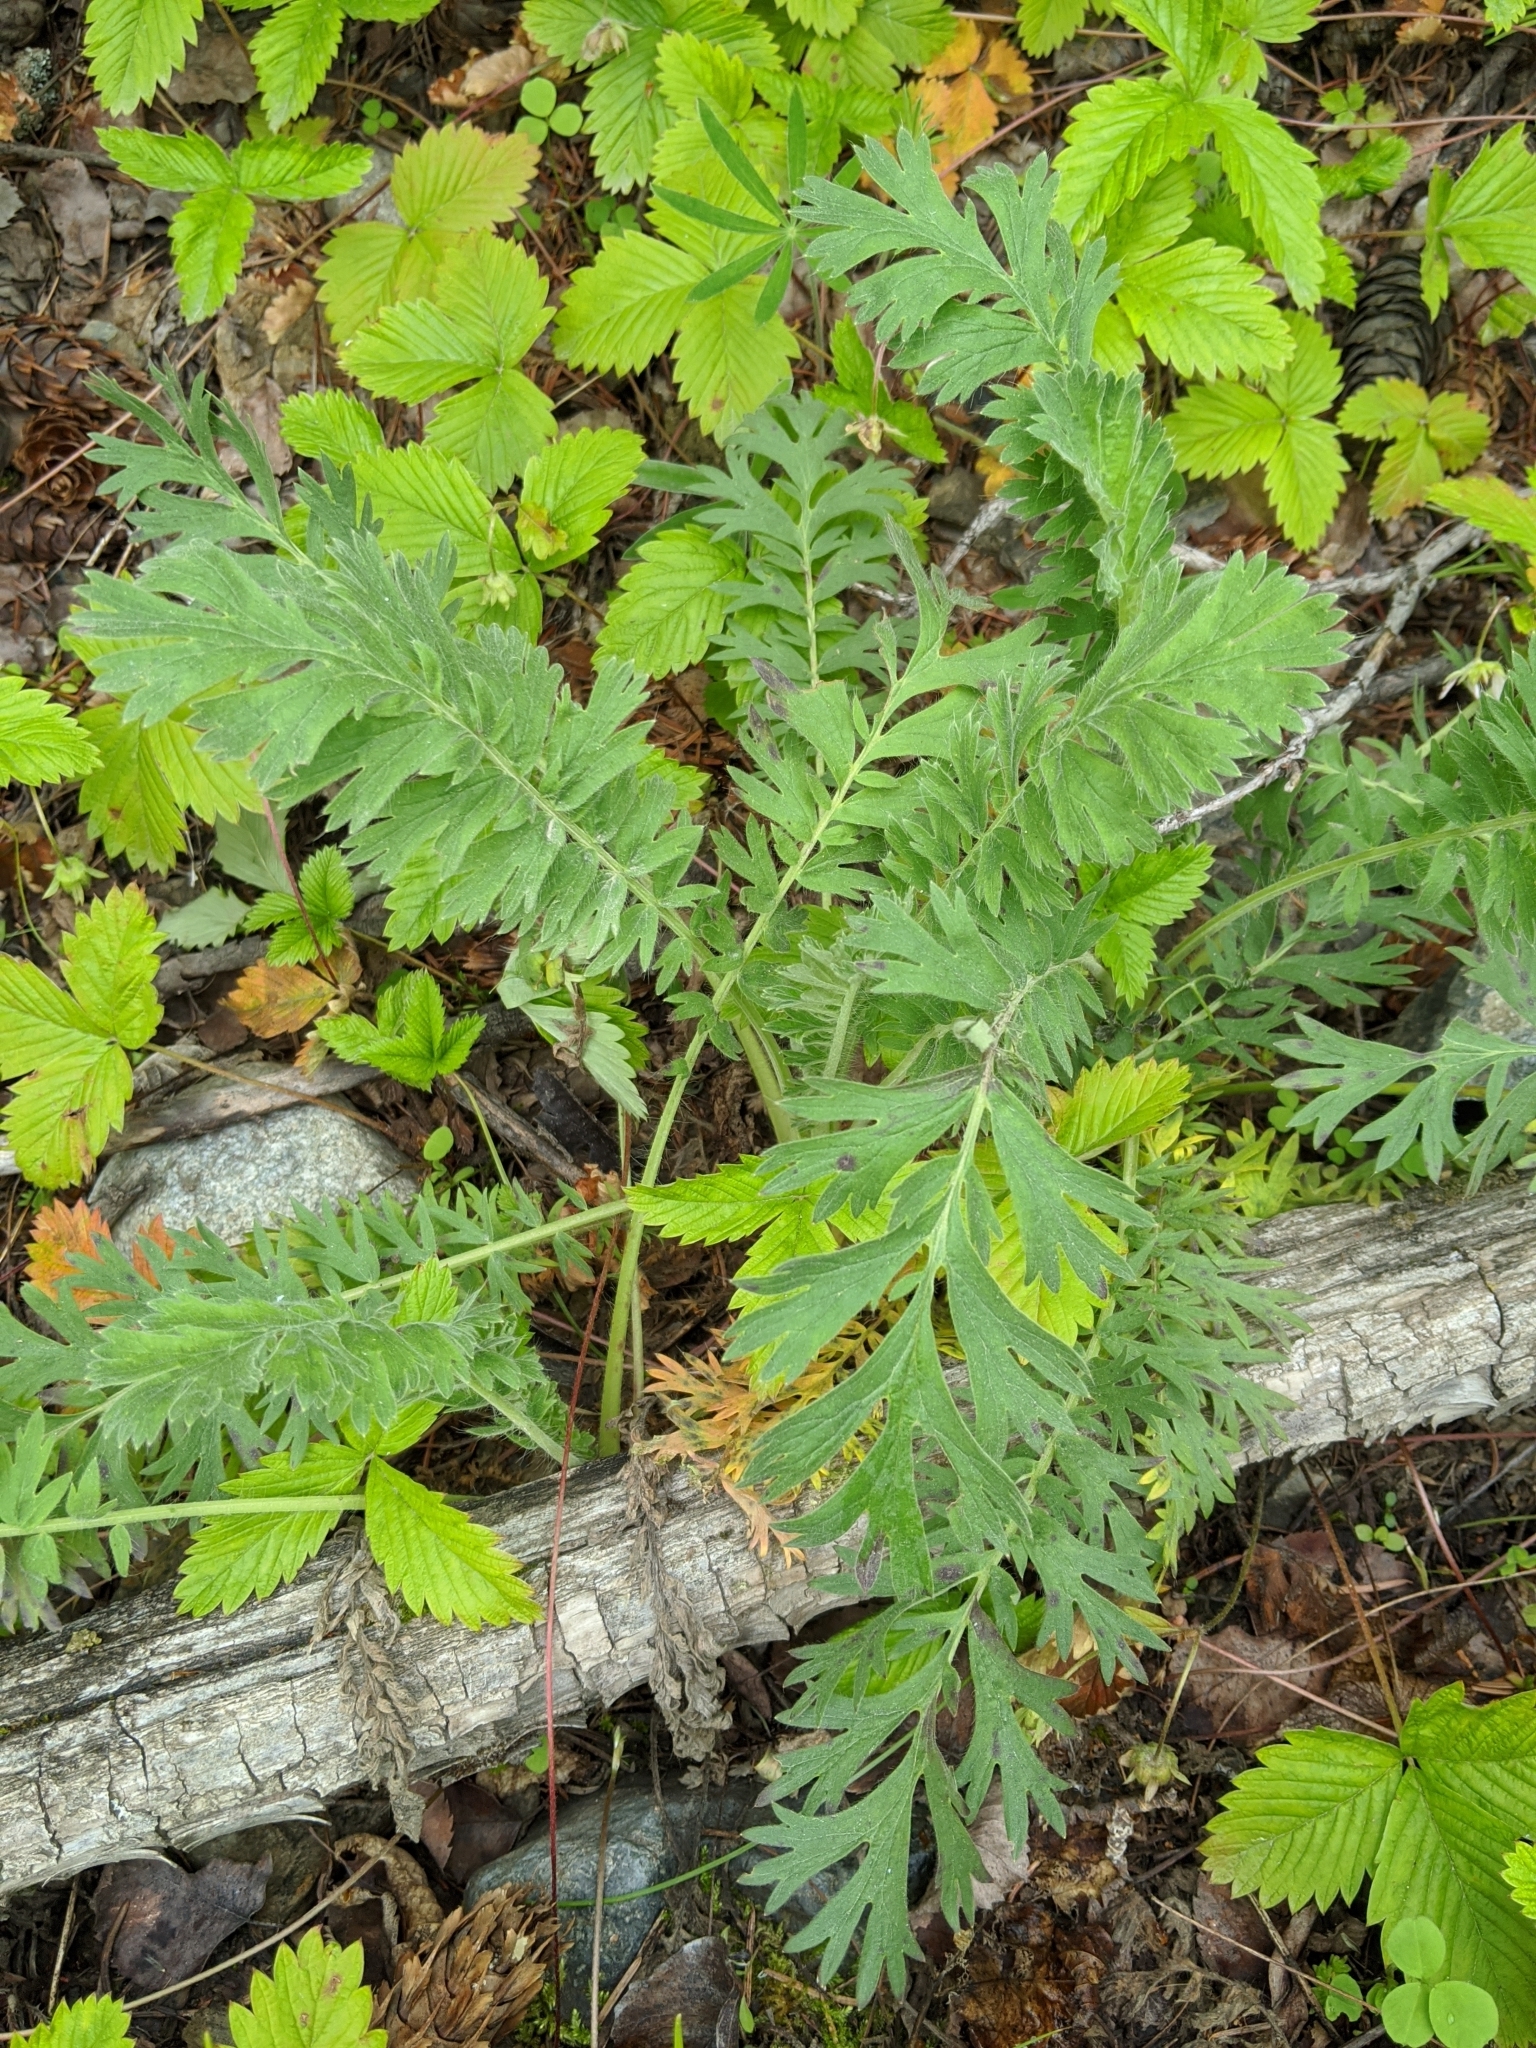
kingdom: Plantae
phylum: Tracheophyta
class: Magnoliopsida
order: Rosales
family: Rosaceae
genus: Geum
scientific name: Geum triflorum
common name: Old man's whiskers
